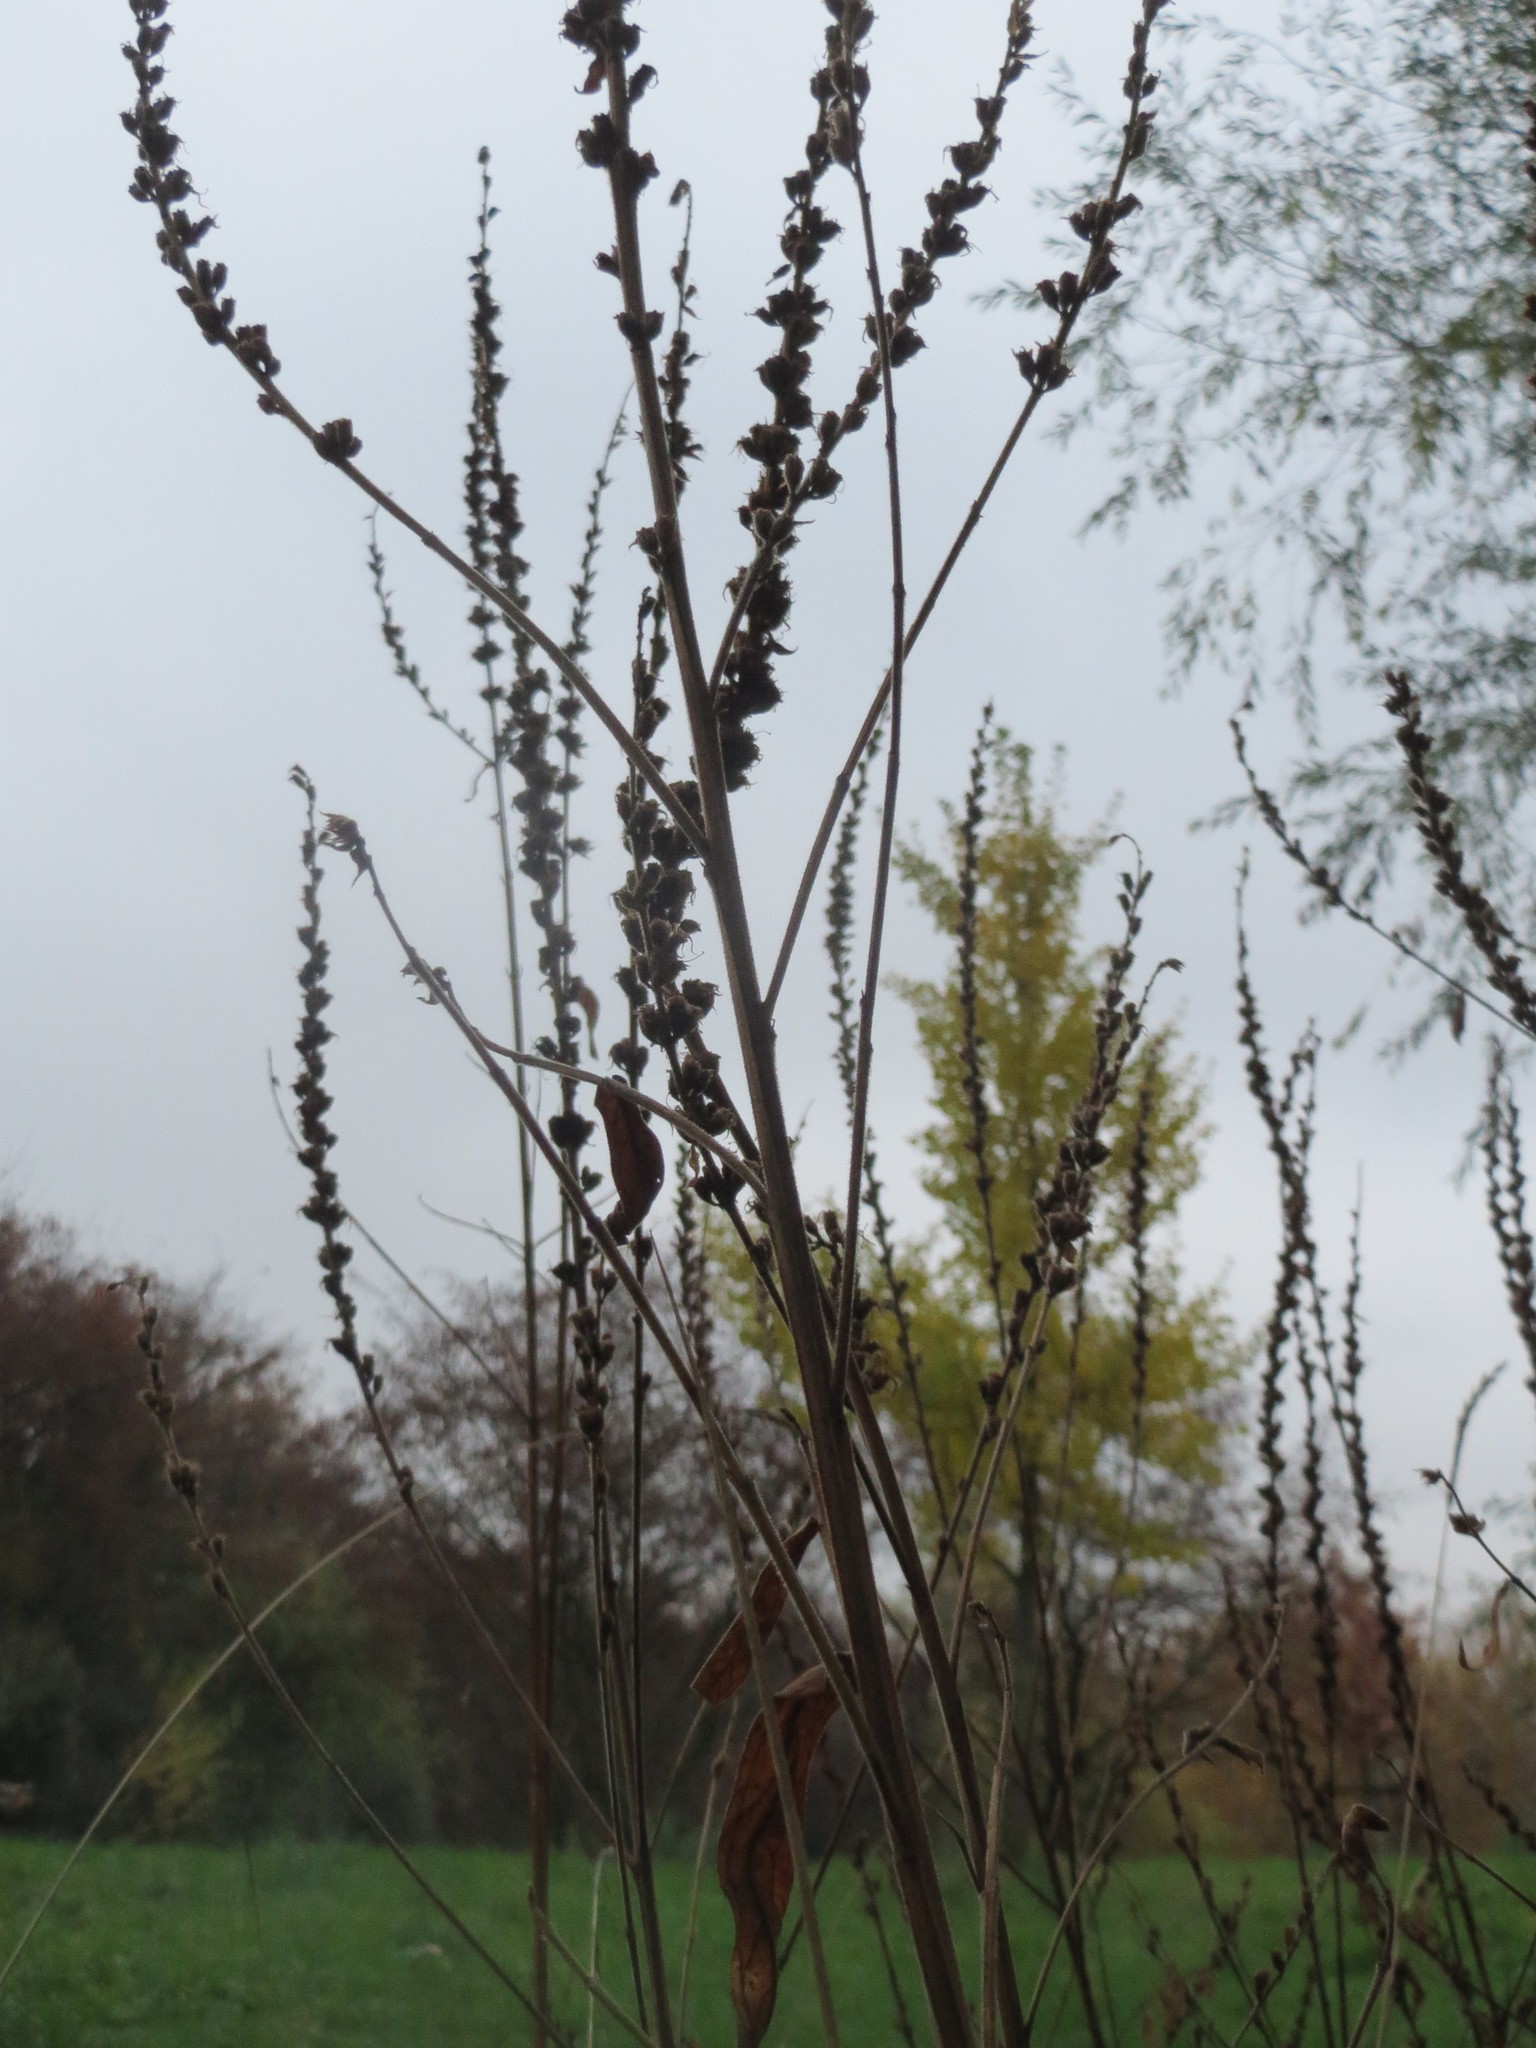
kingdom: Plantae
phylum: Tracheophyta
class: Magnoliopsida
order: Myrtales
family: Lythraceae
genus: Lythrum
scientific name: Lythrum salicaria
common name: Purple loosestrife
